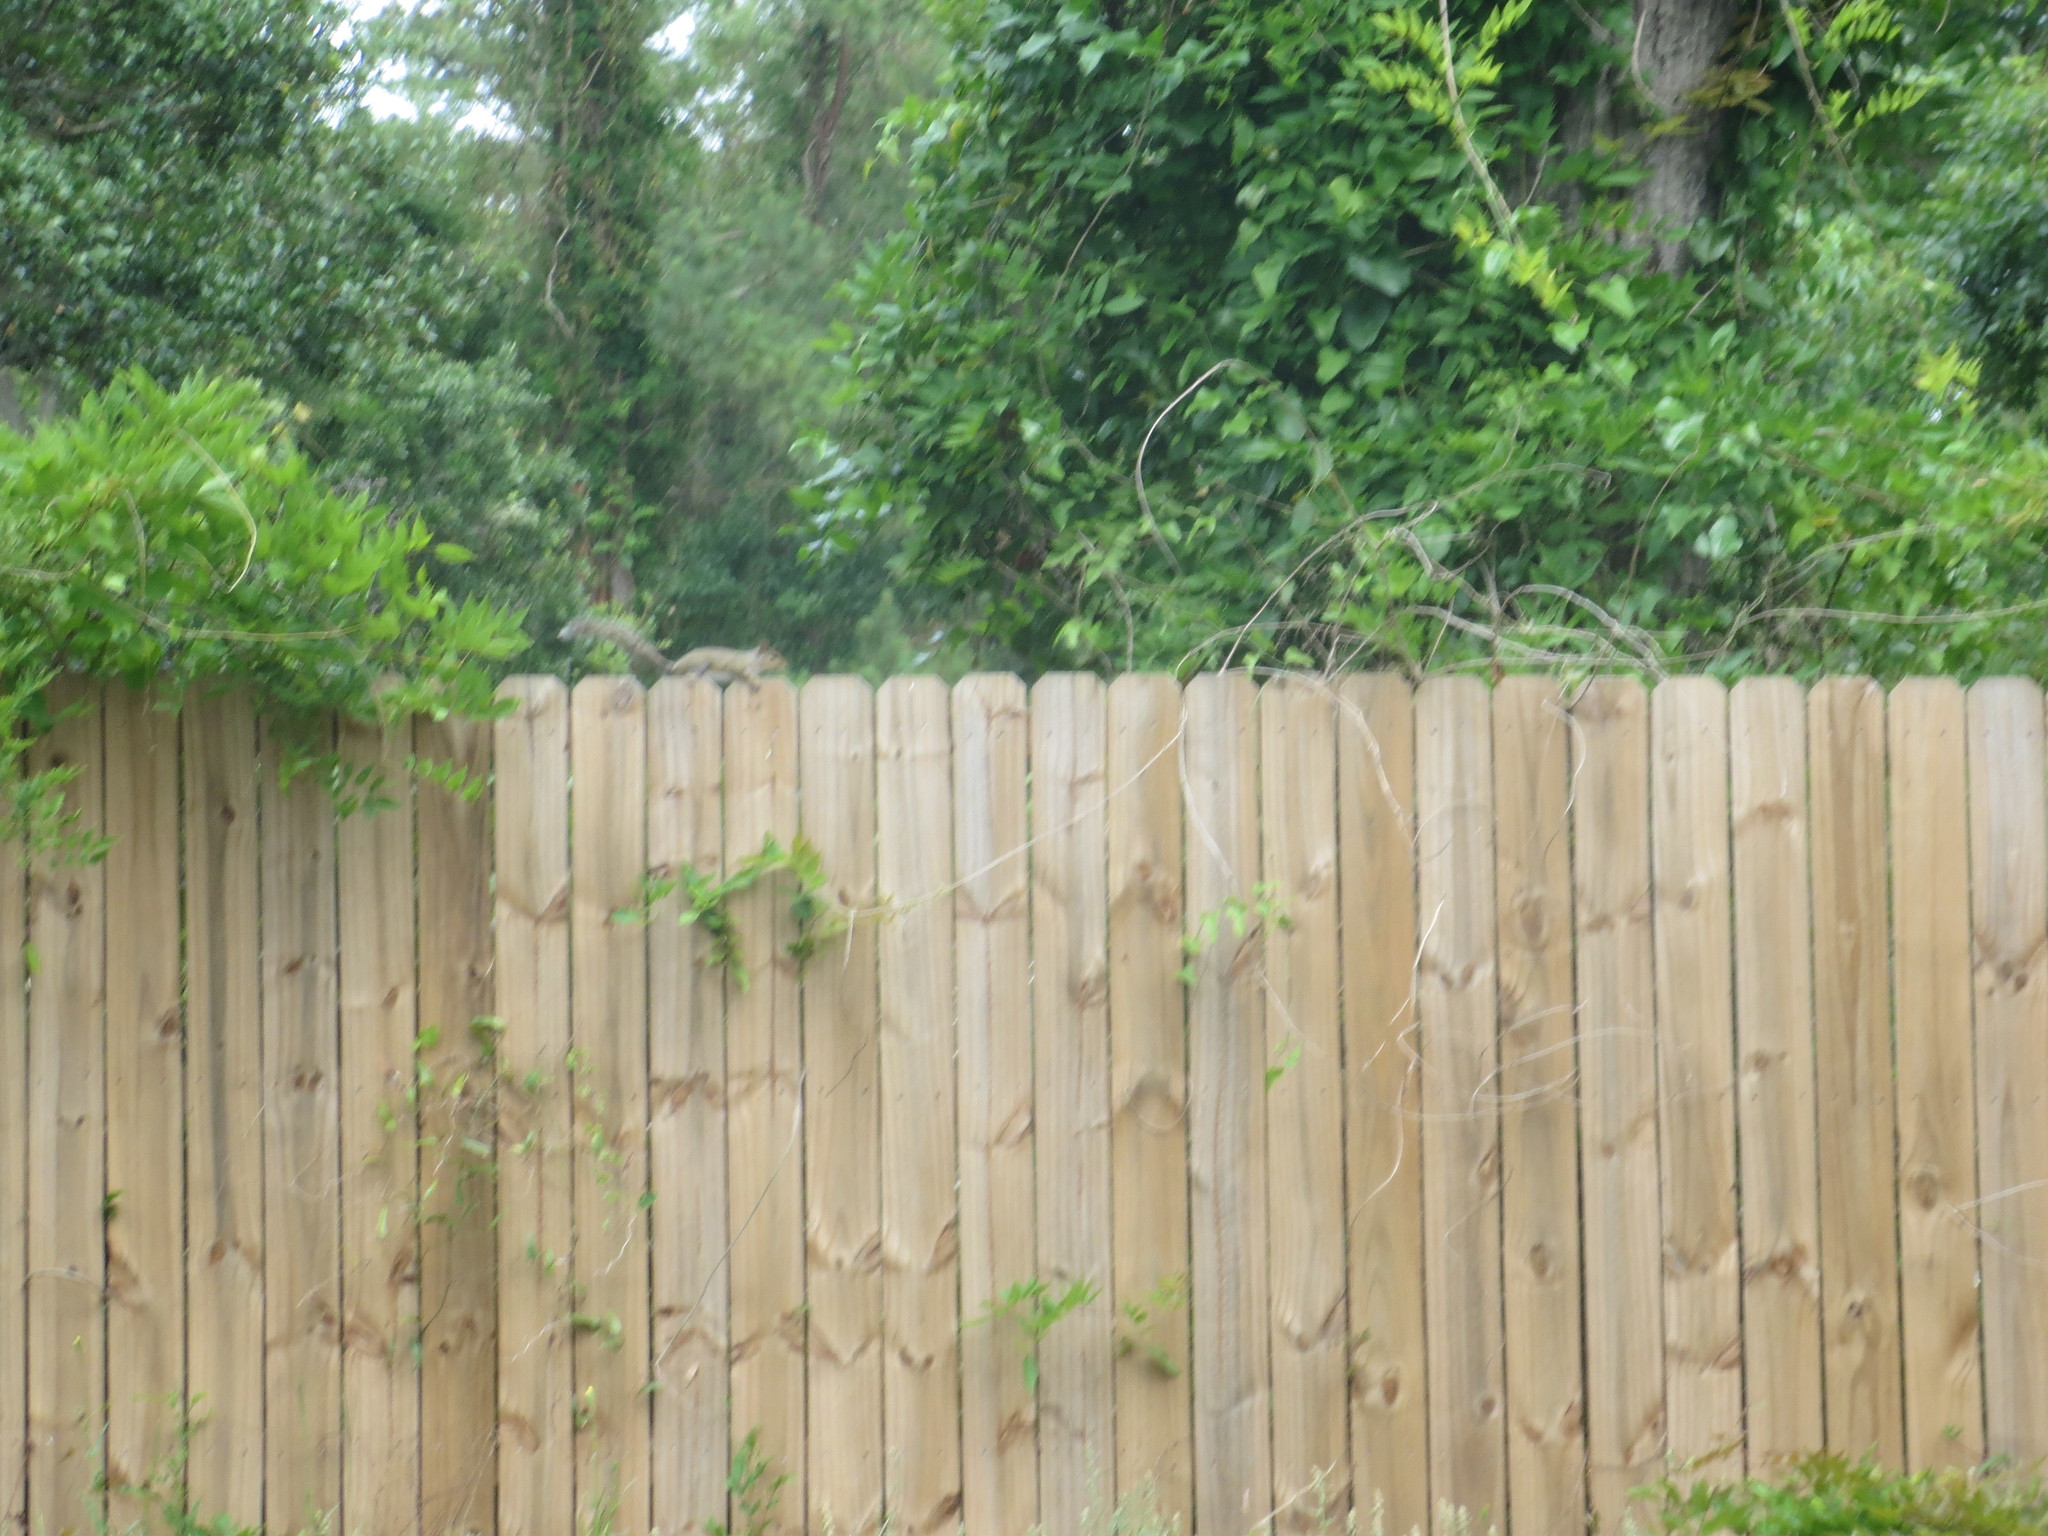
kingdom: Animalia
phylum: Chordata
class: Mammalia
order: Rodentia
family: Sciuridae
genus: Sciurus
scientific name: Sciurus carolinensis
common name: Eastern gray squirrel
